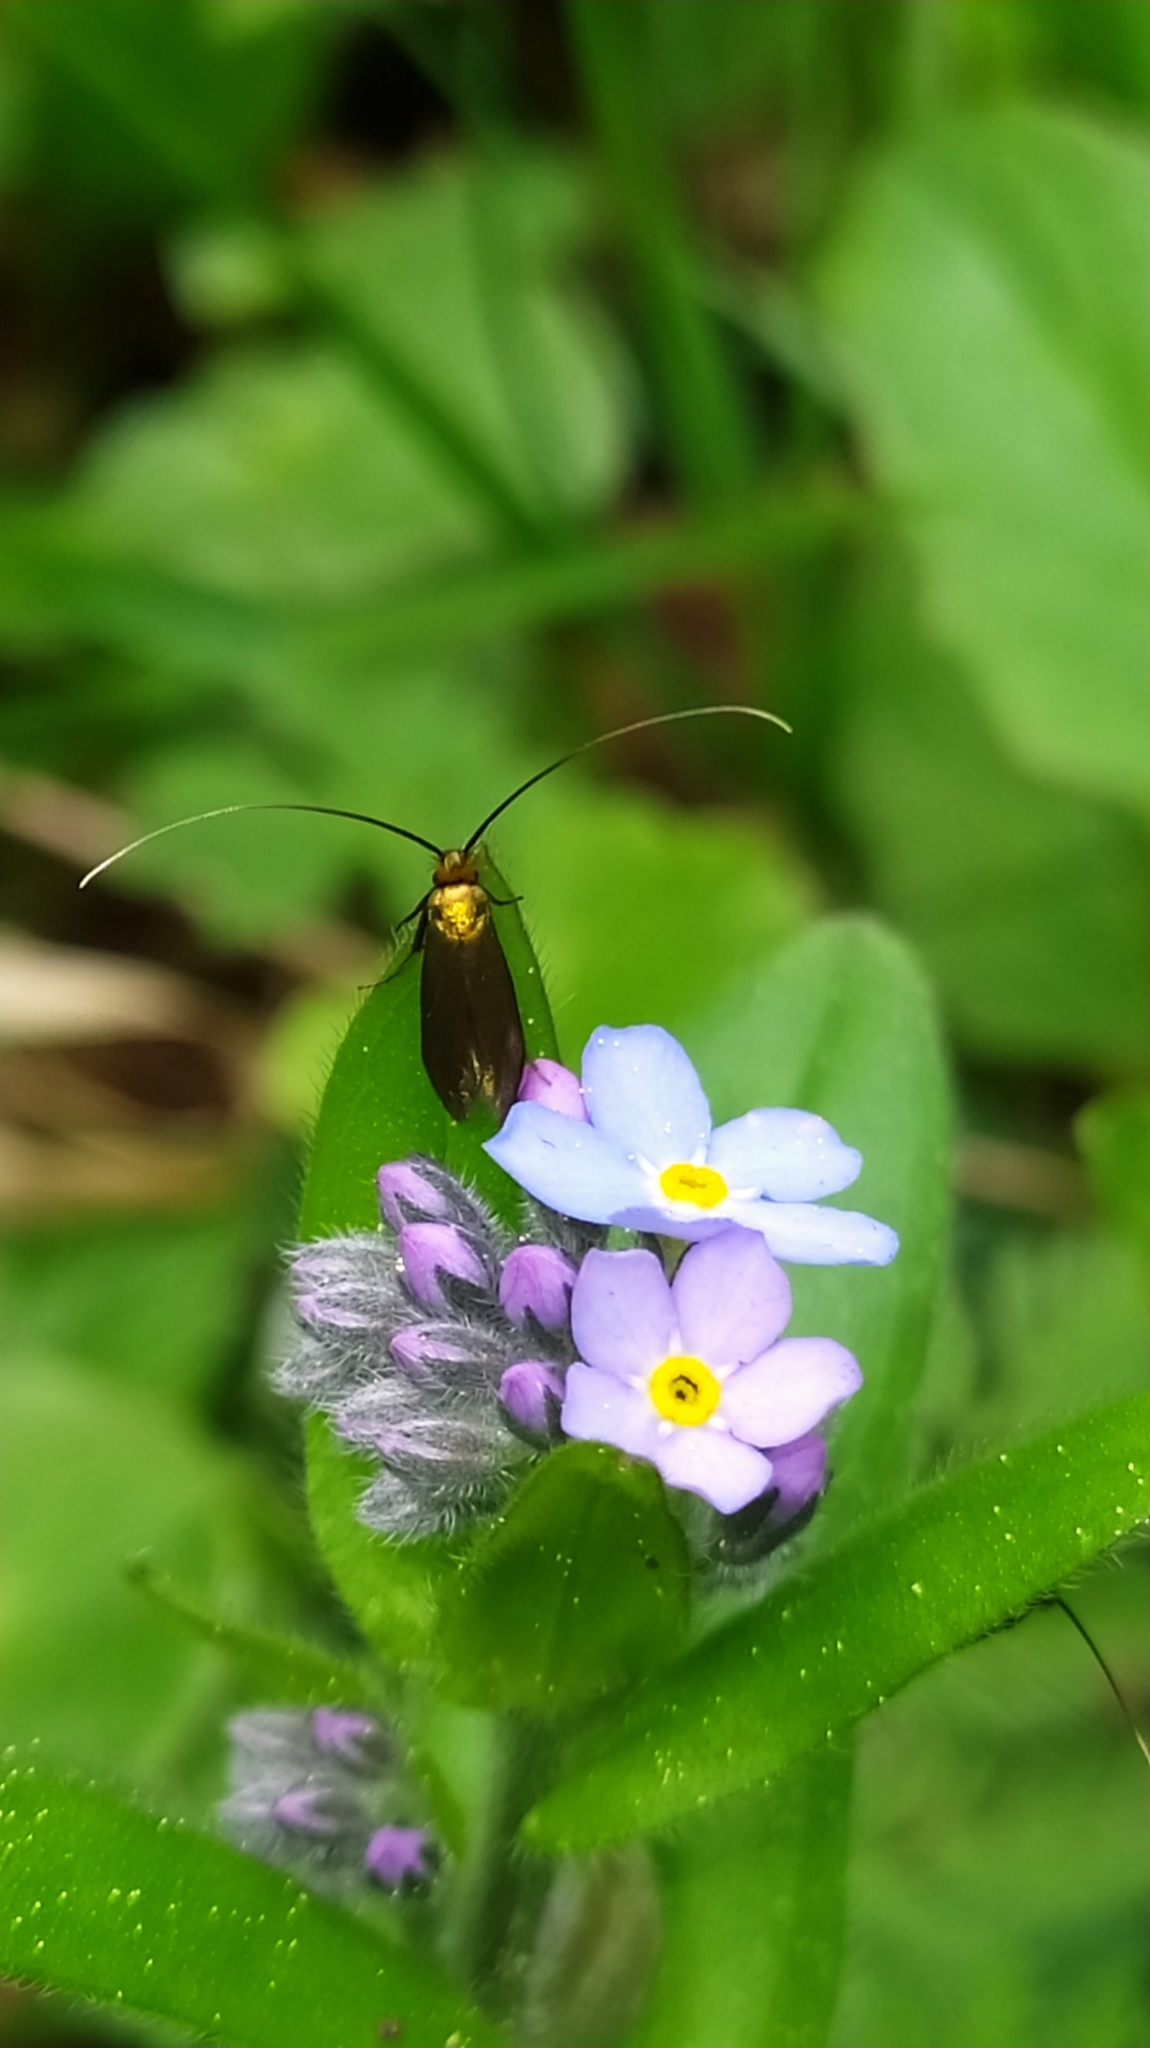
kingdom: Animalia
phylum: Arthropoda
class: Insecta
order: Lepidoptera
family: Adelidae
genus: Cauchas
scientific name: Cauchas rufimitrella
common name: Meadow long-horn
